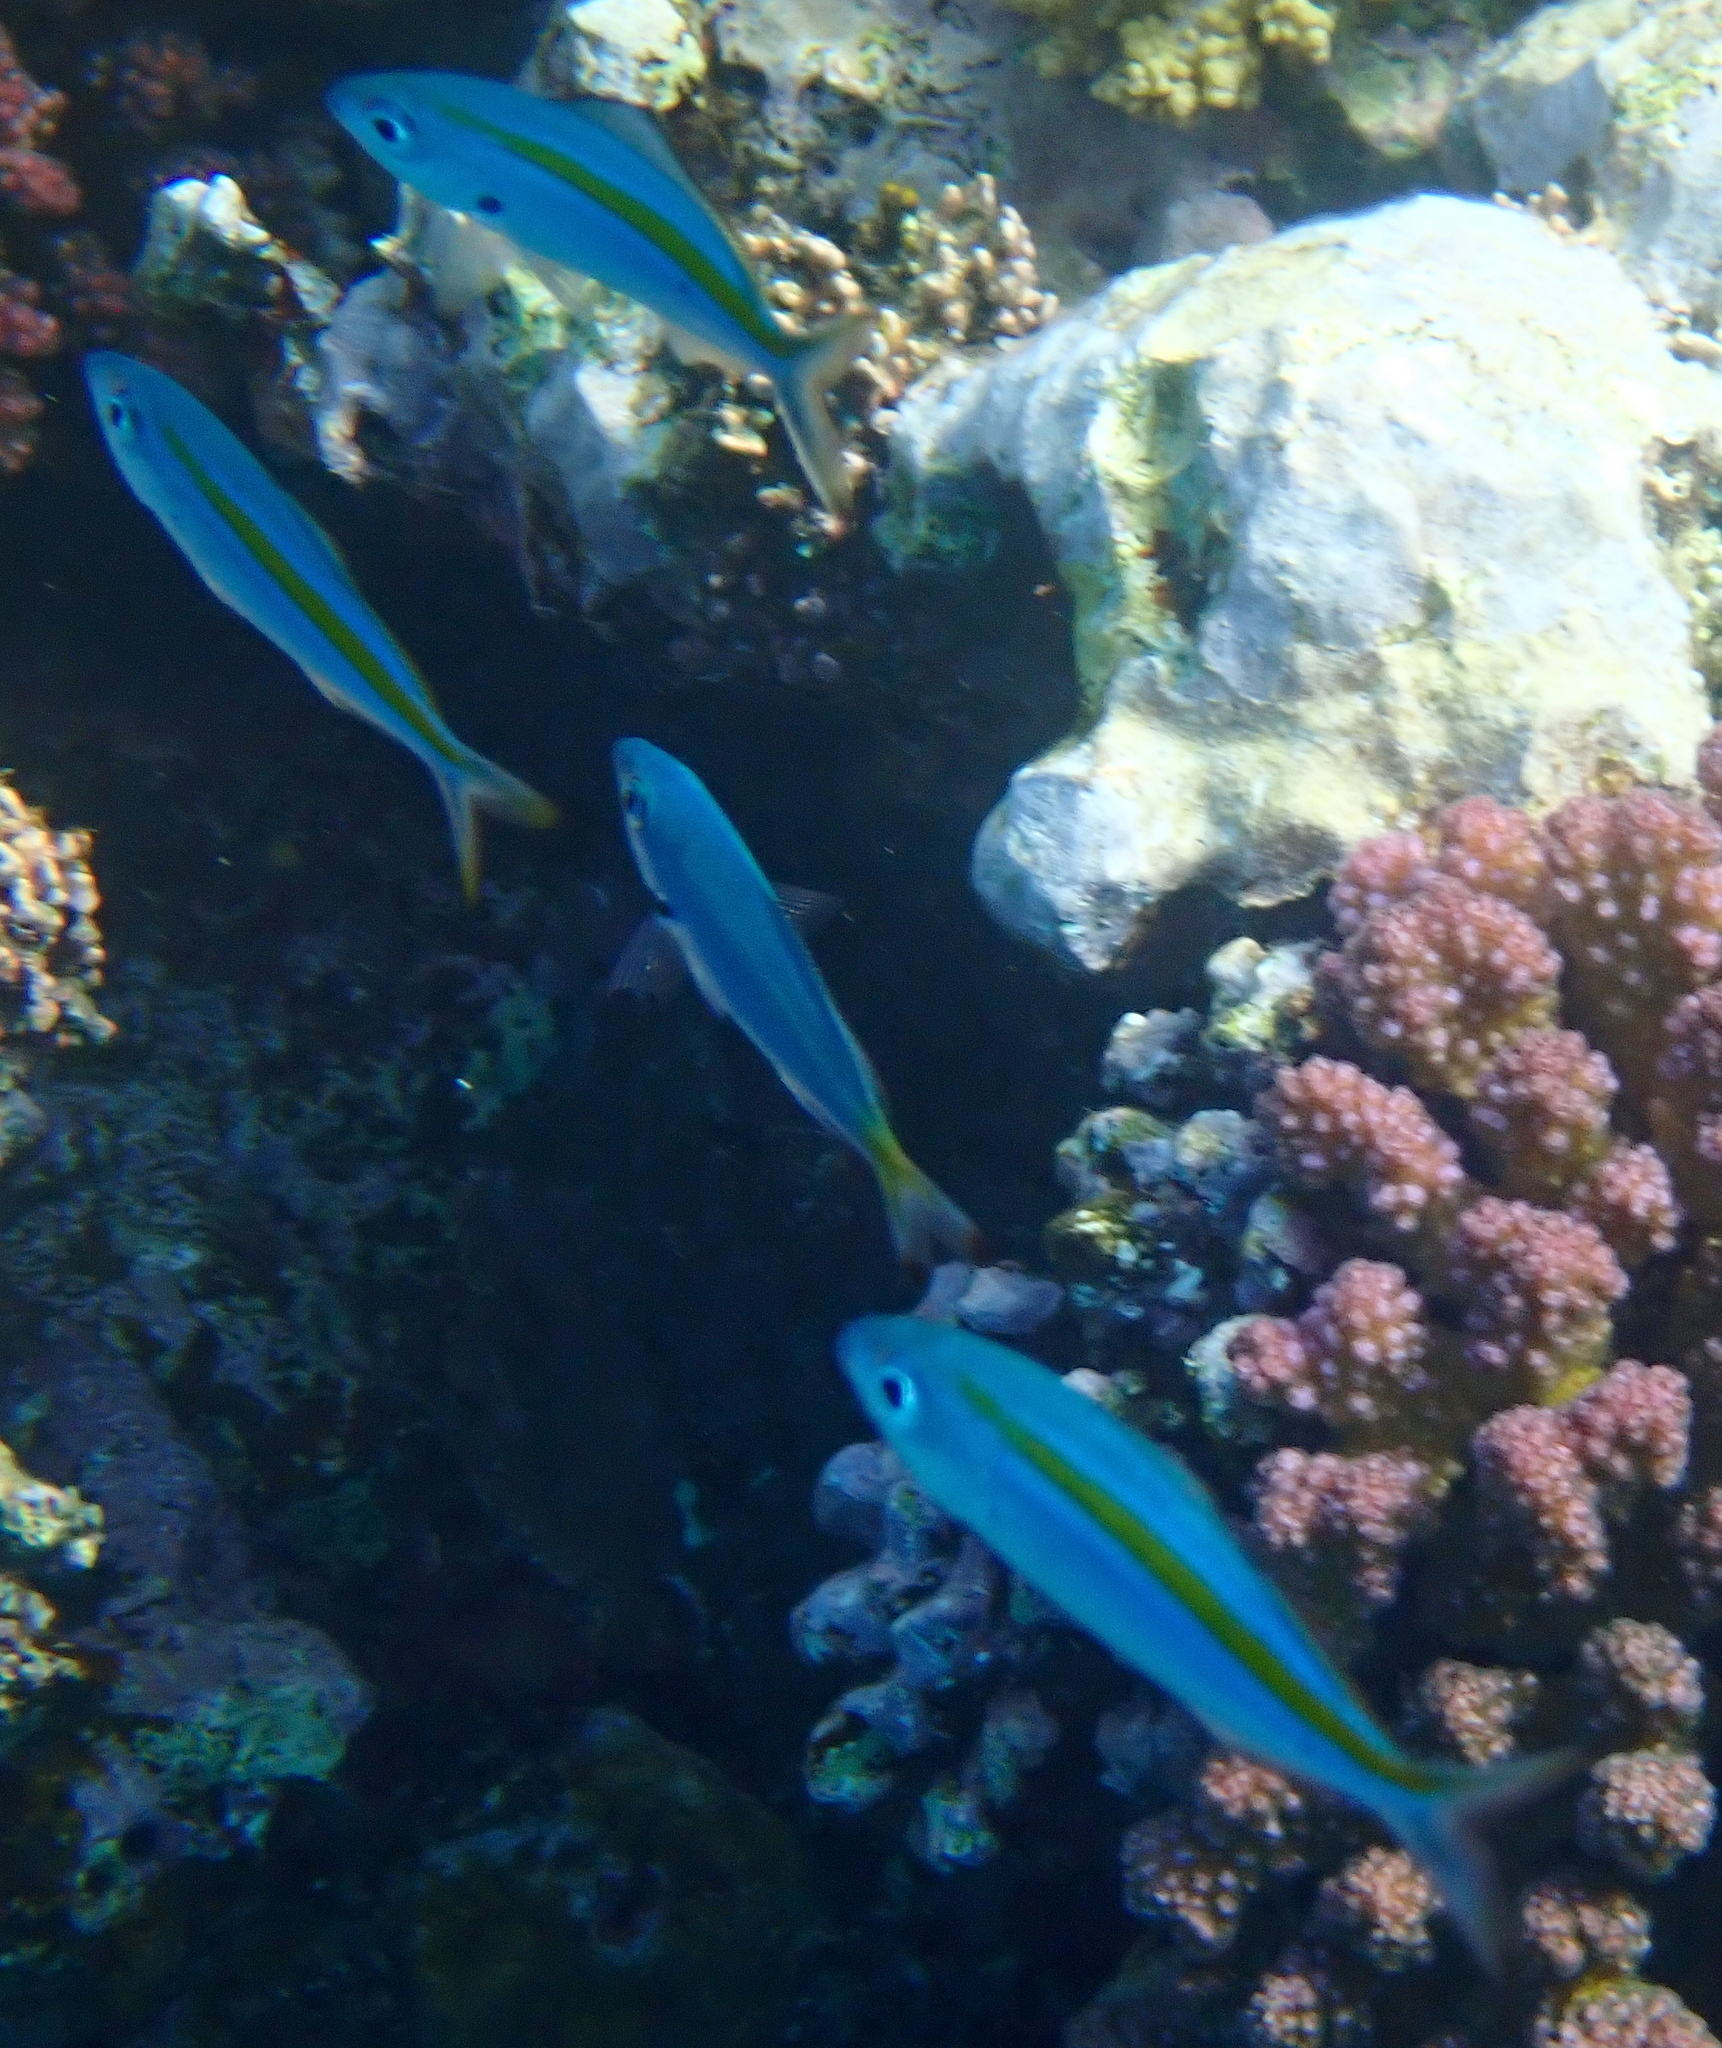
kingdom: Animalia
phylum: Chordata
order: Perciformes
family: Caesionidae
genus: Caesio
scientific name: Caesio caerulaurea
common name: Blue and gold fusilier
